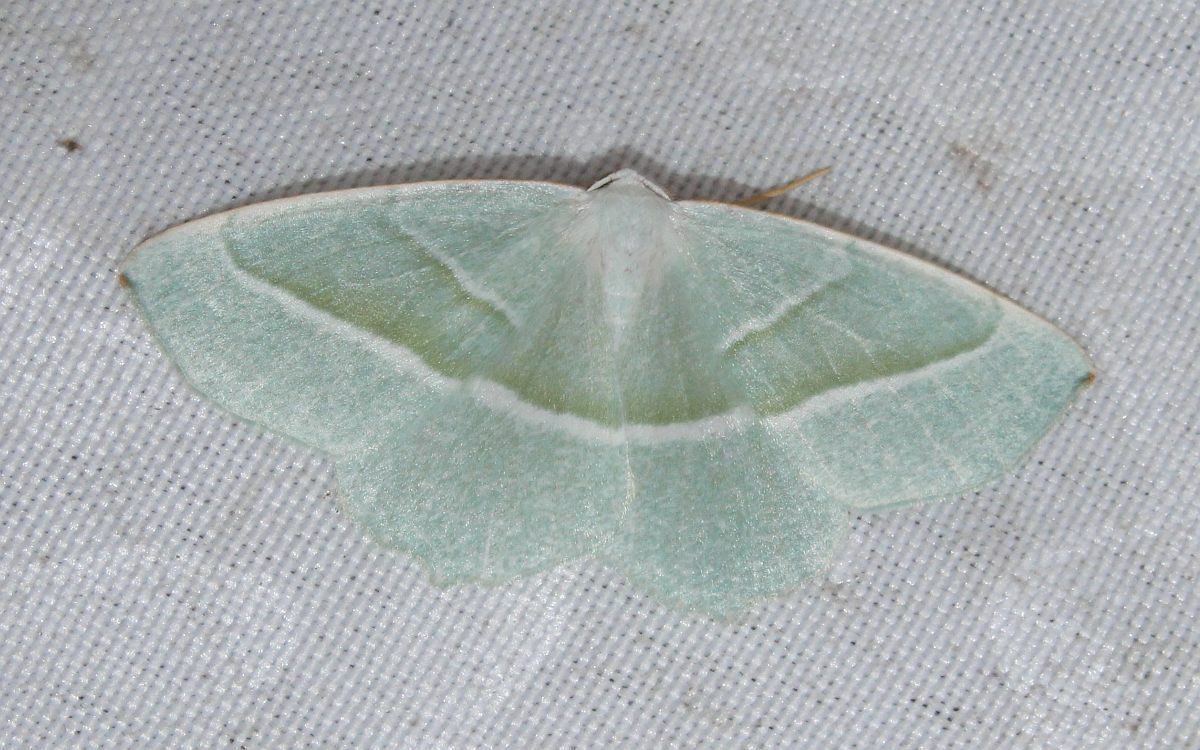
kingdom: Animalia
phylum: Arthropoda
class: Insecta
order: Lepidoptera
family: Geometridae
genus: Campaea
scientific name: Campaea margaritaria
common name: Light emerald
